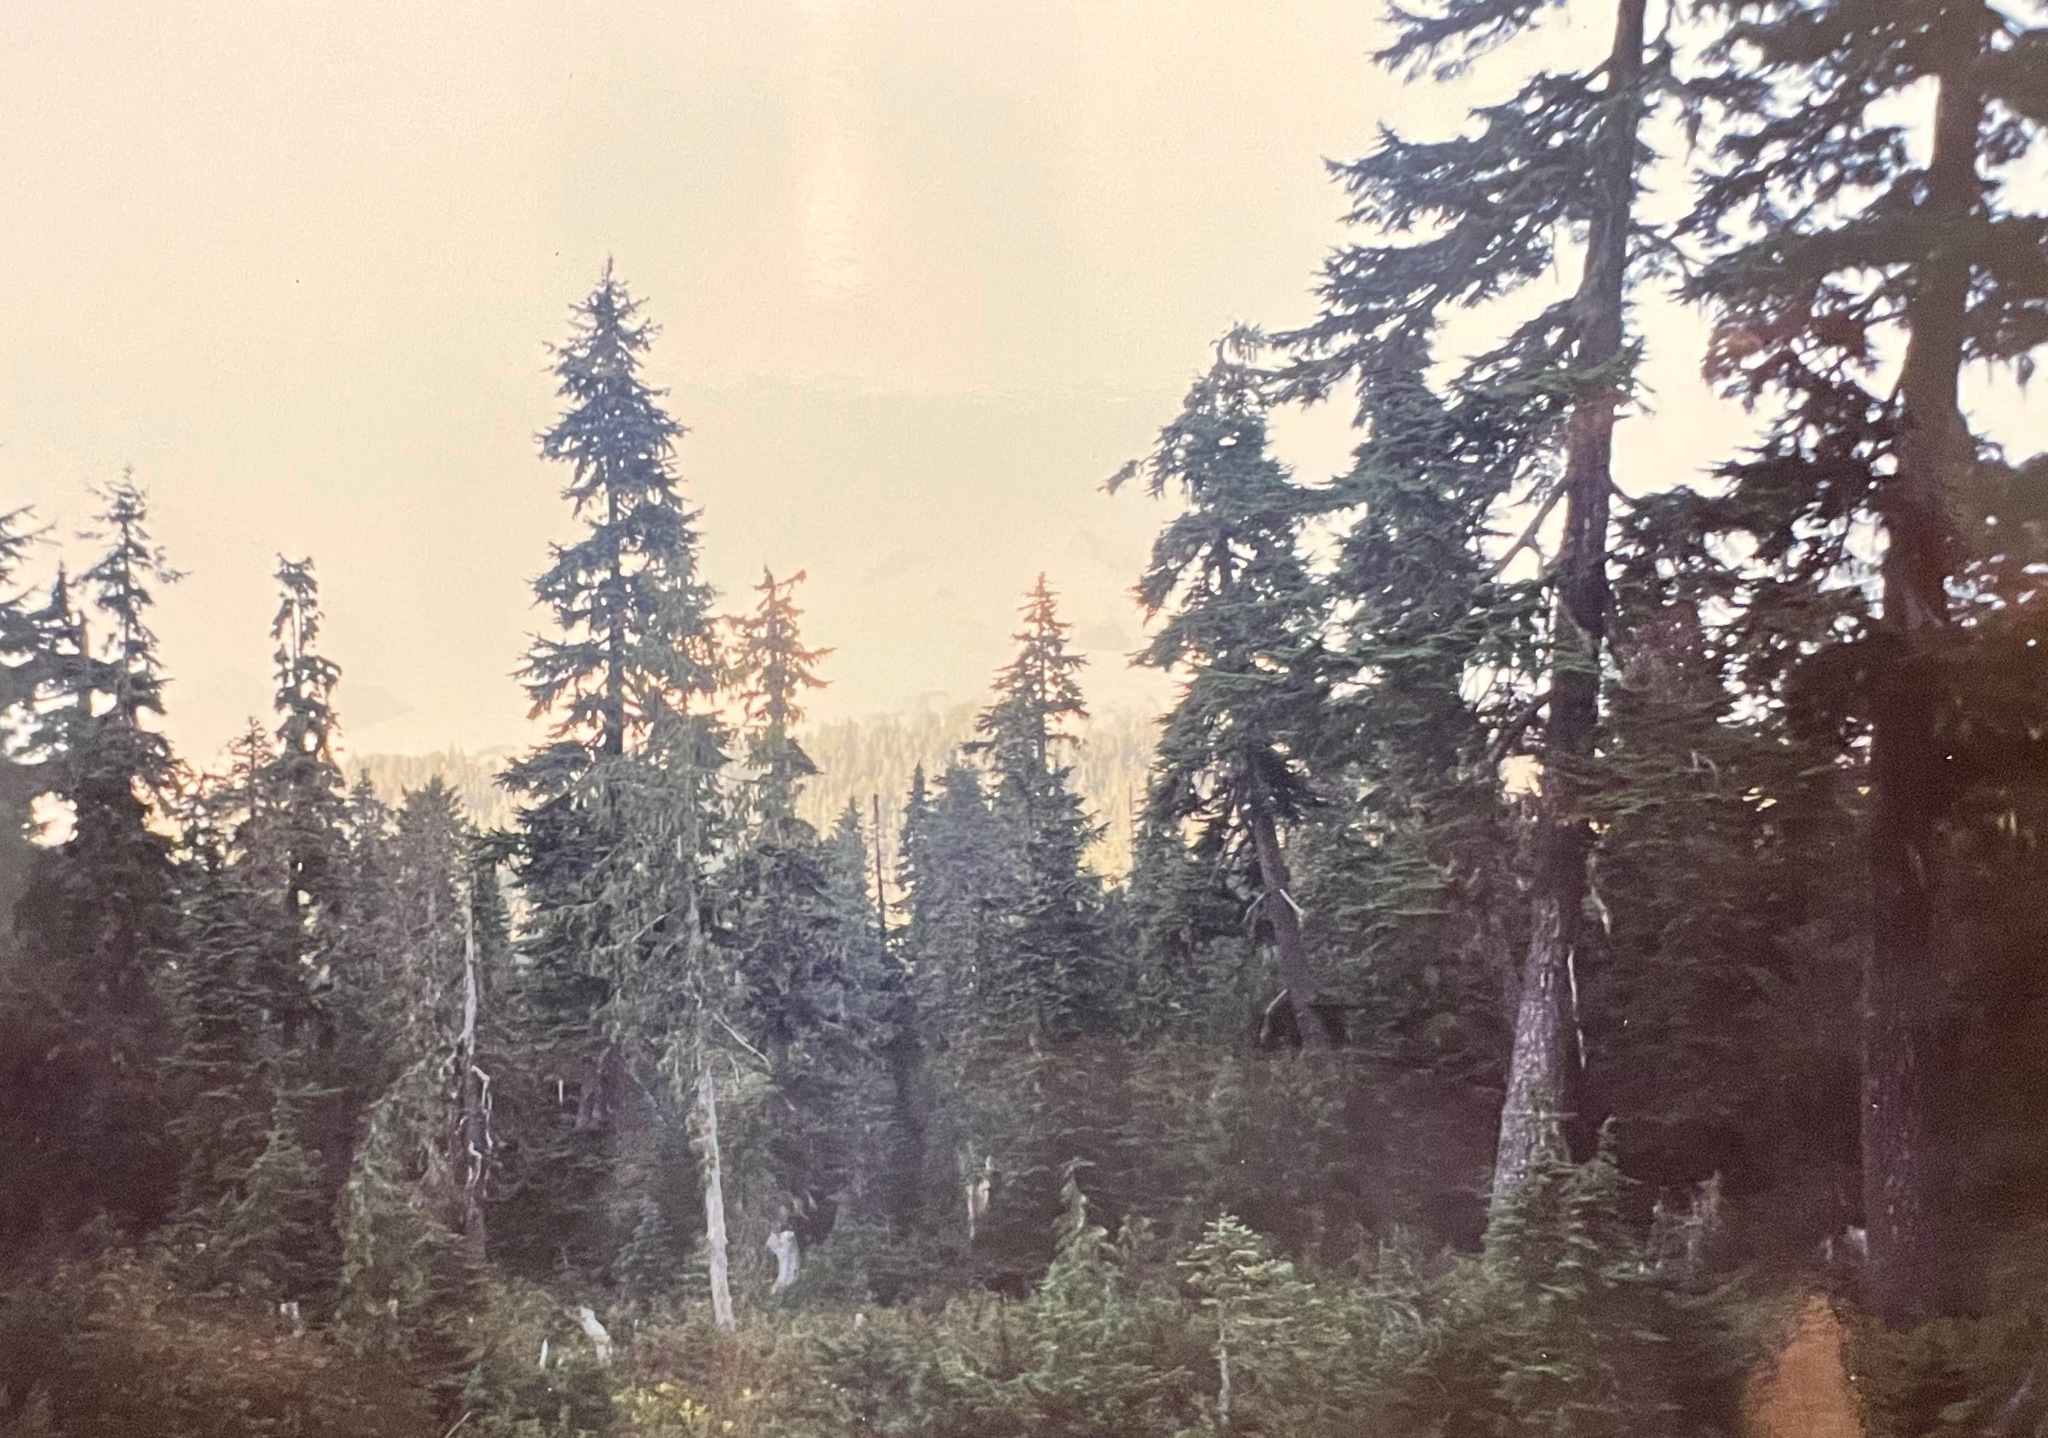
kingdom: Plantae
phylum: Tracheophyta
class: Pinopsida
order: Pinales
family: Pinaceae
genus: Tsuga
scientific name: Tsuga mertensiana
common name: Mountain hemlock
